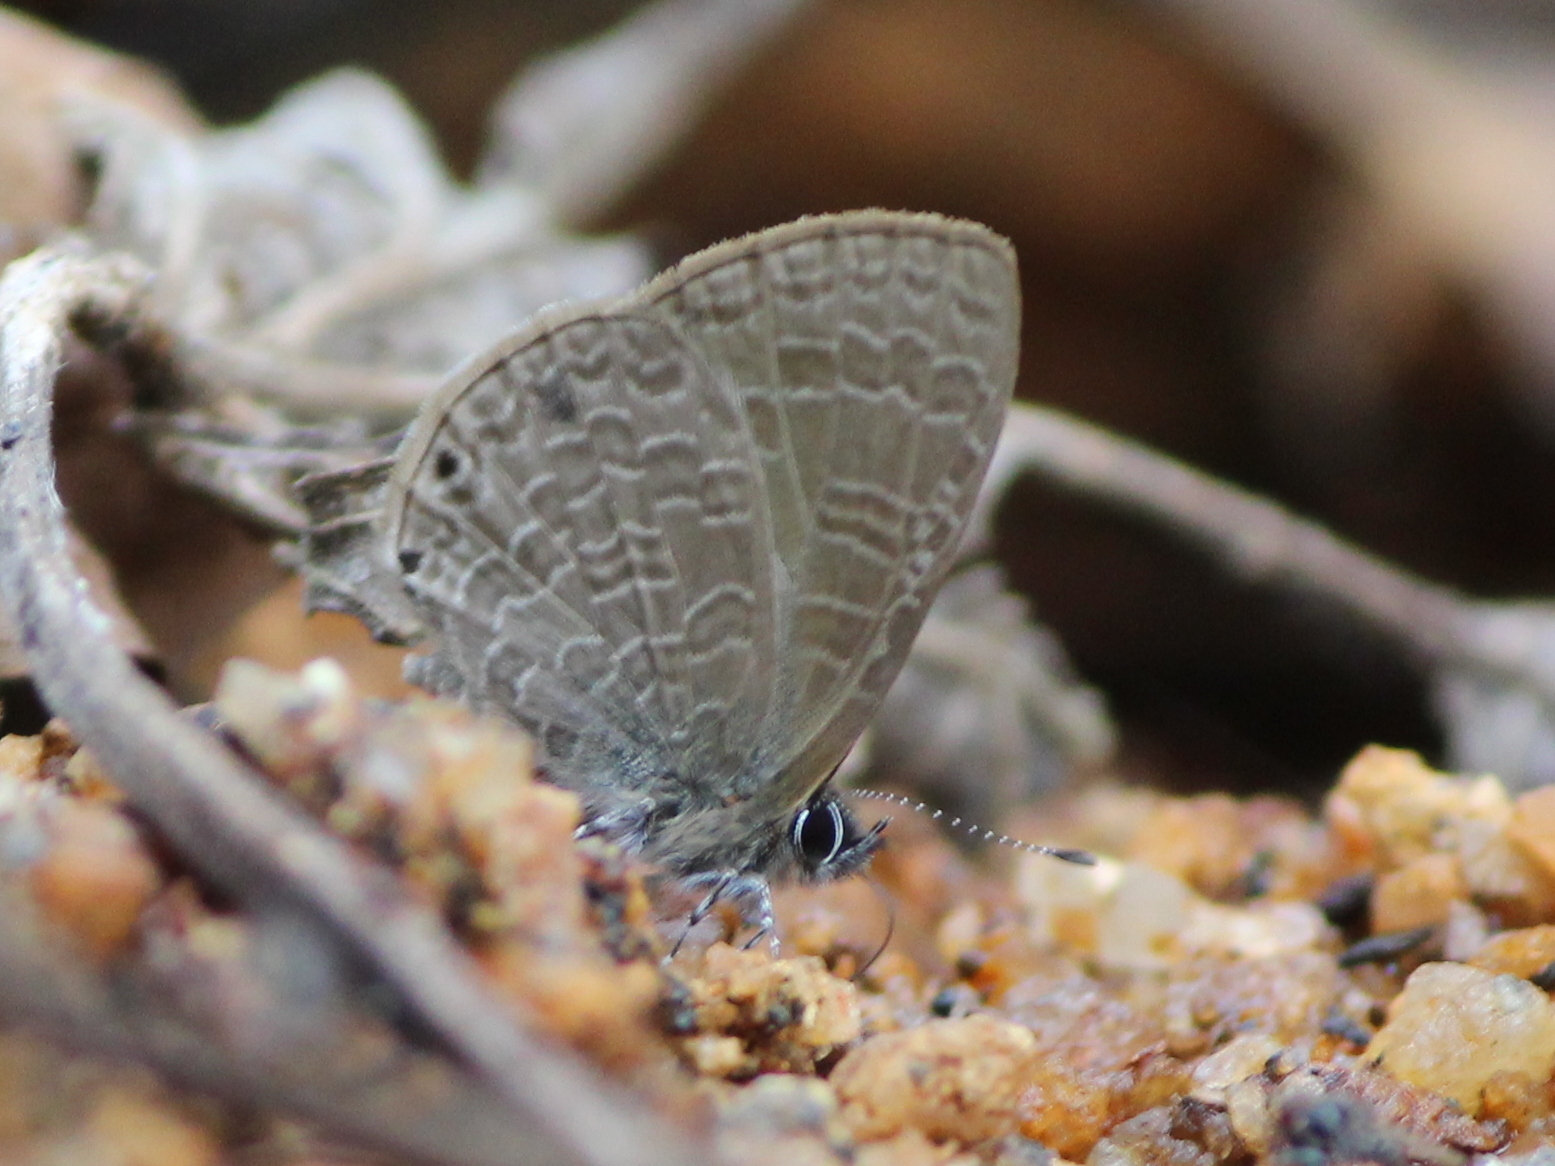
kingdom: Animalia
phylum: Arthropoda
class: Insecta
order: Lepidoptera
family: Lycaenidae
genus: Petrelaea
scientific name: Petrelaea dana
